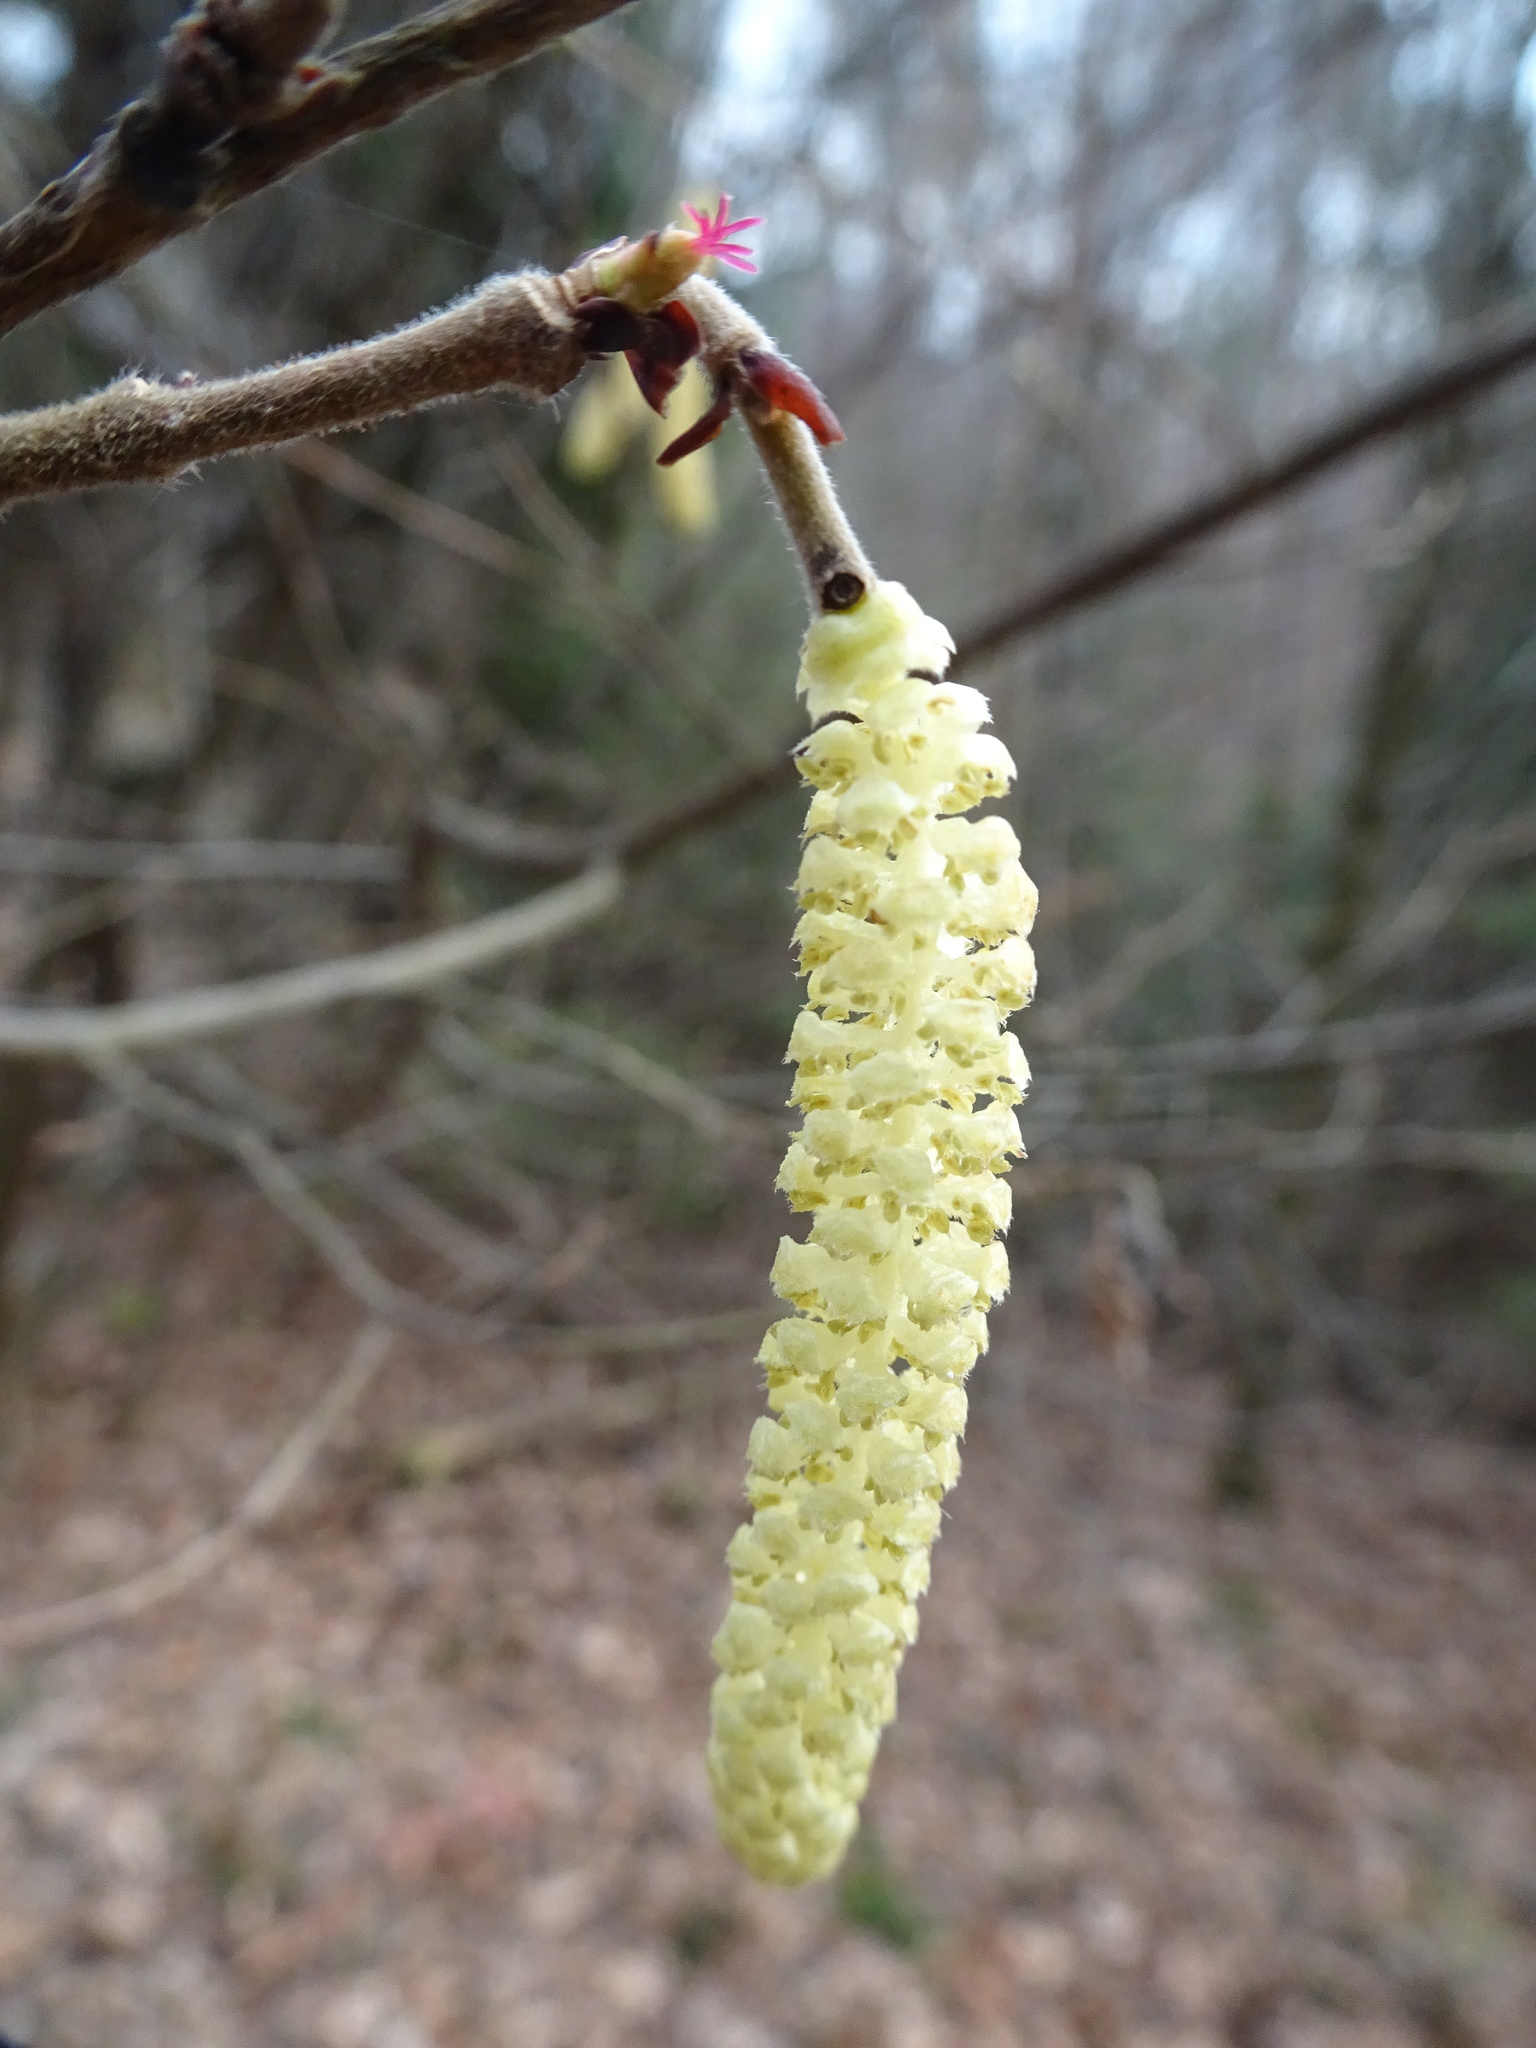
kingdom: Plantae
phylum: Tracheophyta
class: Magnoliopsida
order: Fagales
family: Betulaceae
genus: Corylus
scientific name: Corylus avellana
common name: European hazel
